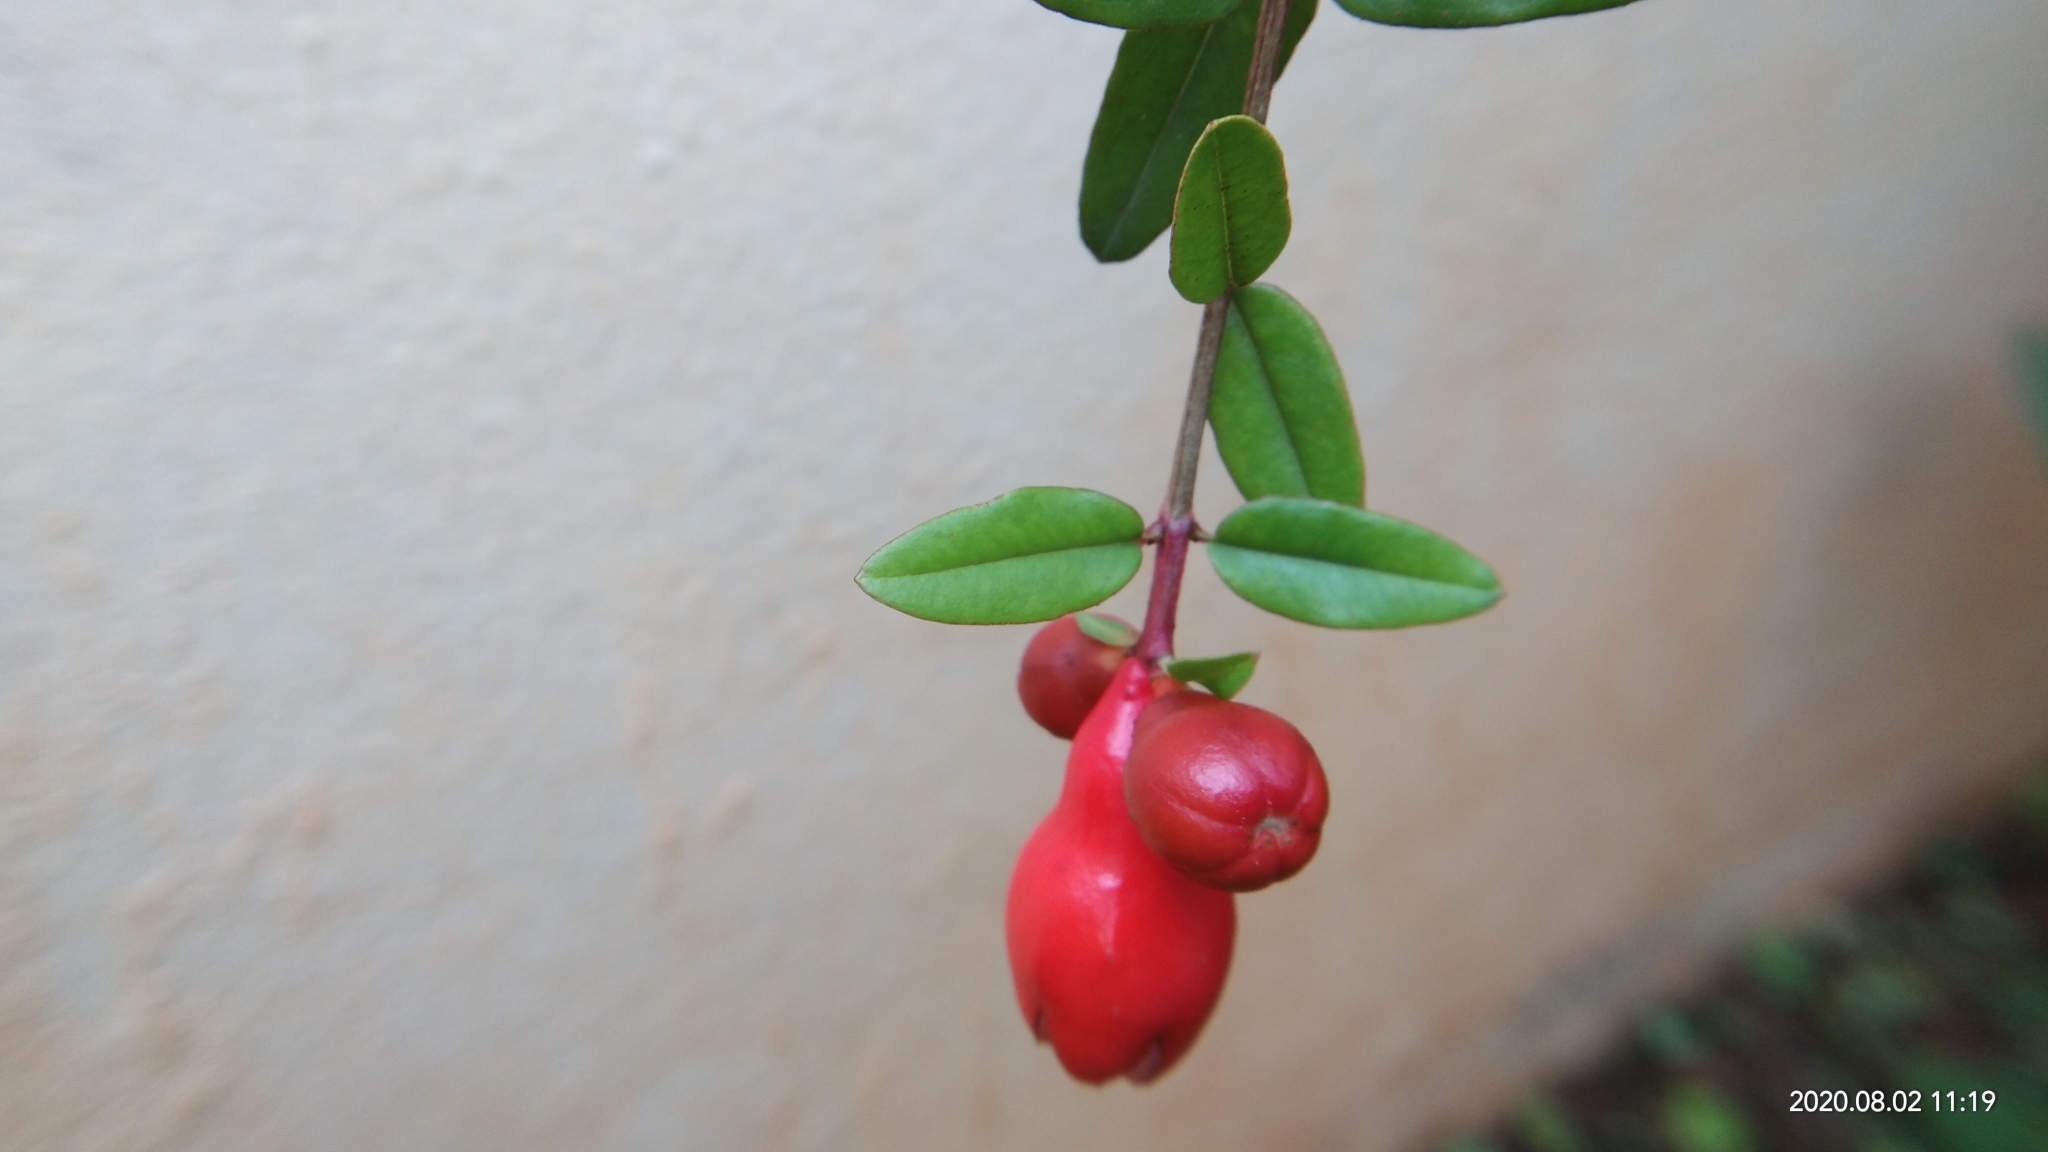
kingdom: Plantae
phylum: Tracheophyta
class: Magnoliopsida
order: Myrtales
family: Lythraceae
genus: Punica
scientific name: Punica granatum
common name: Pomegranate
